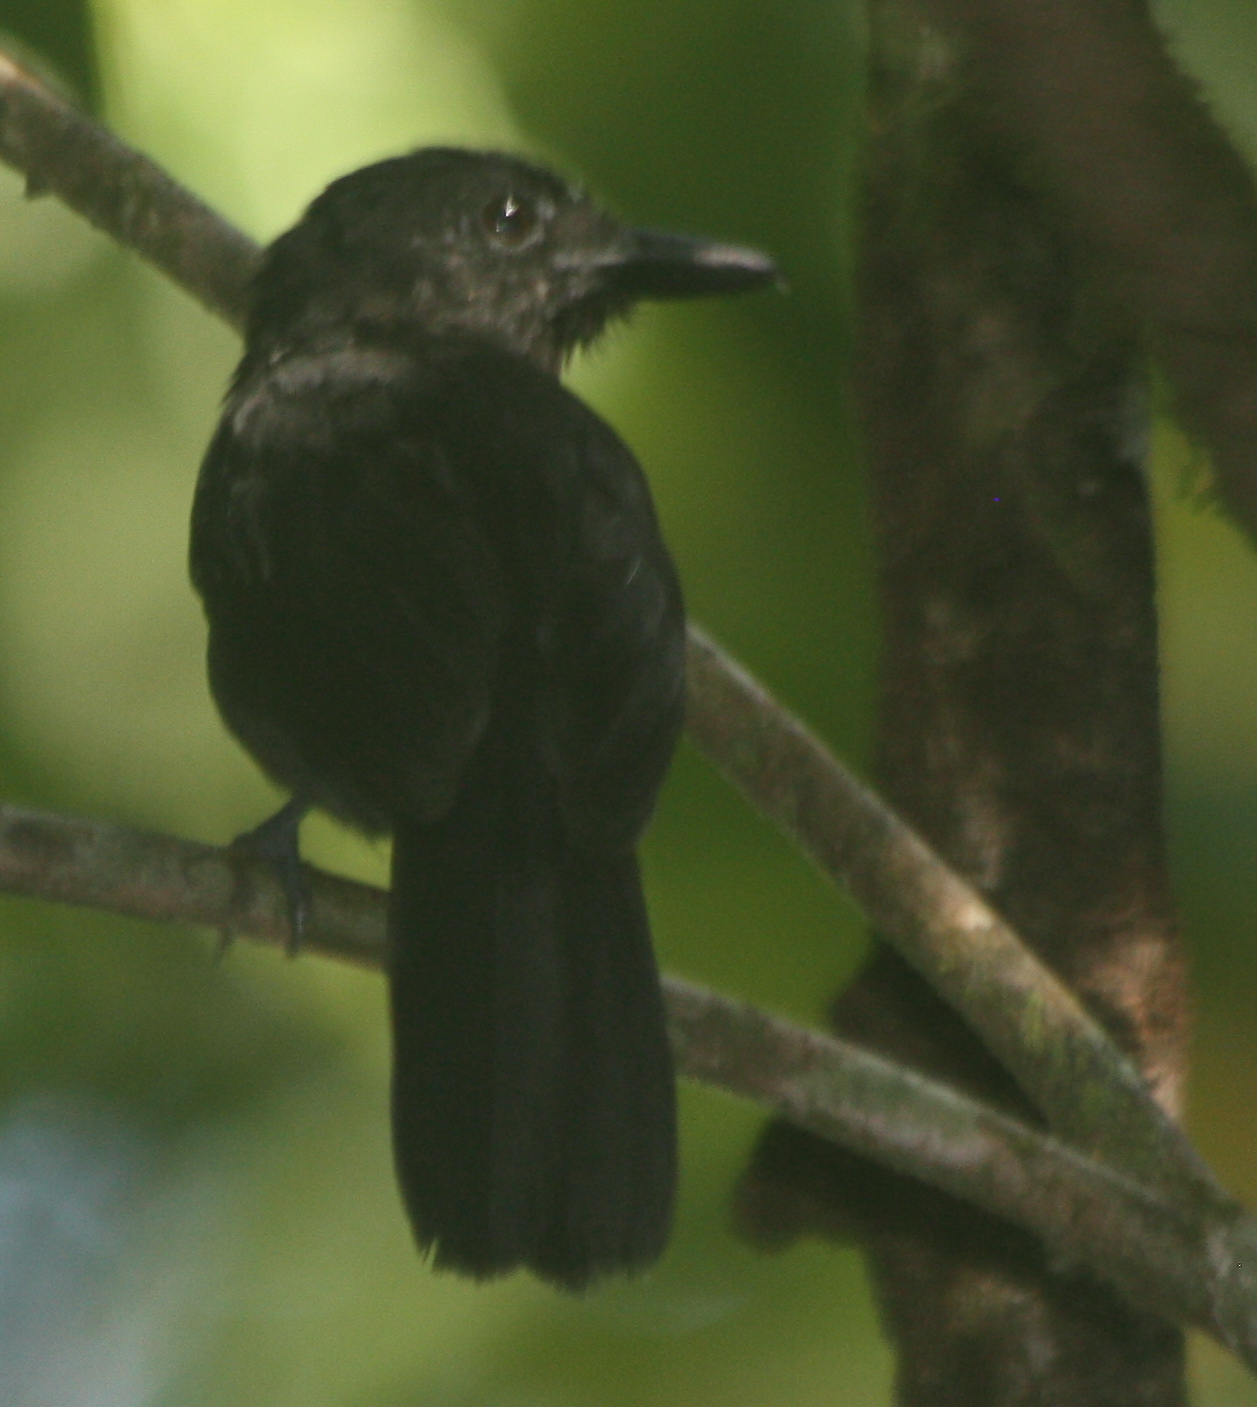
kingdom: Animalia
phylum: Chordata
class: Aves
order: Passeriformes
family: Thamnophilidae
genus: Thamnophilus
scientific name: Thamnophilus bridgesi
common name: Black-hooded antshrike
